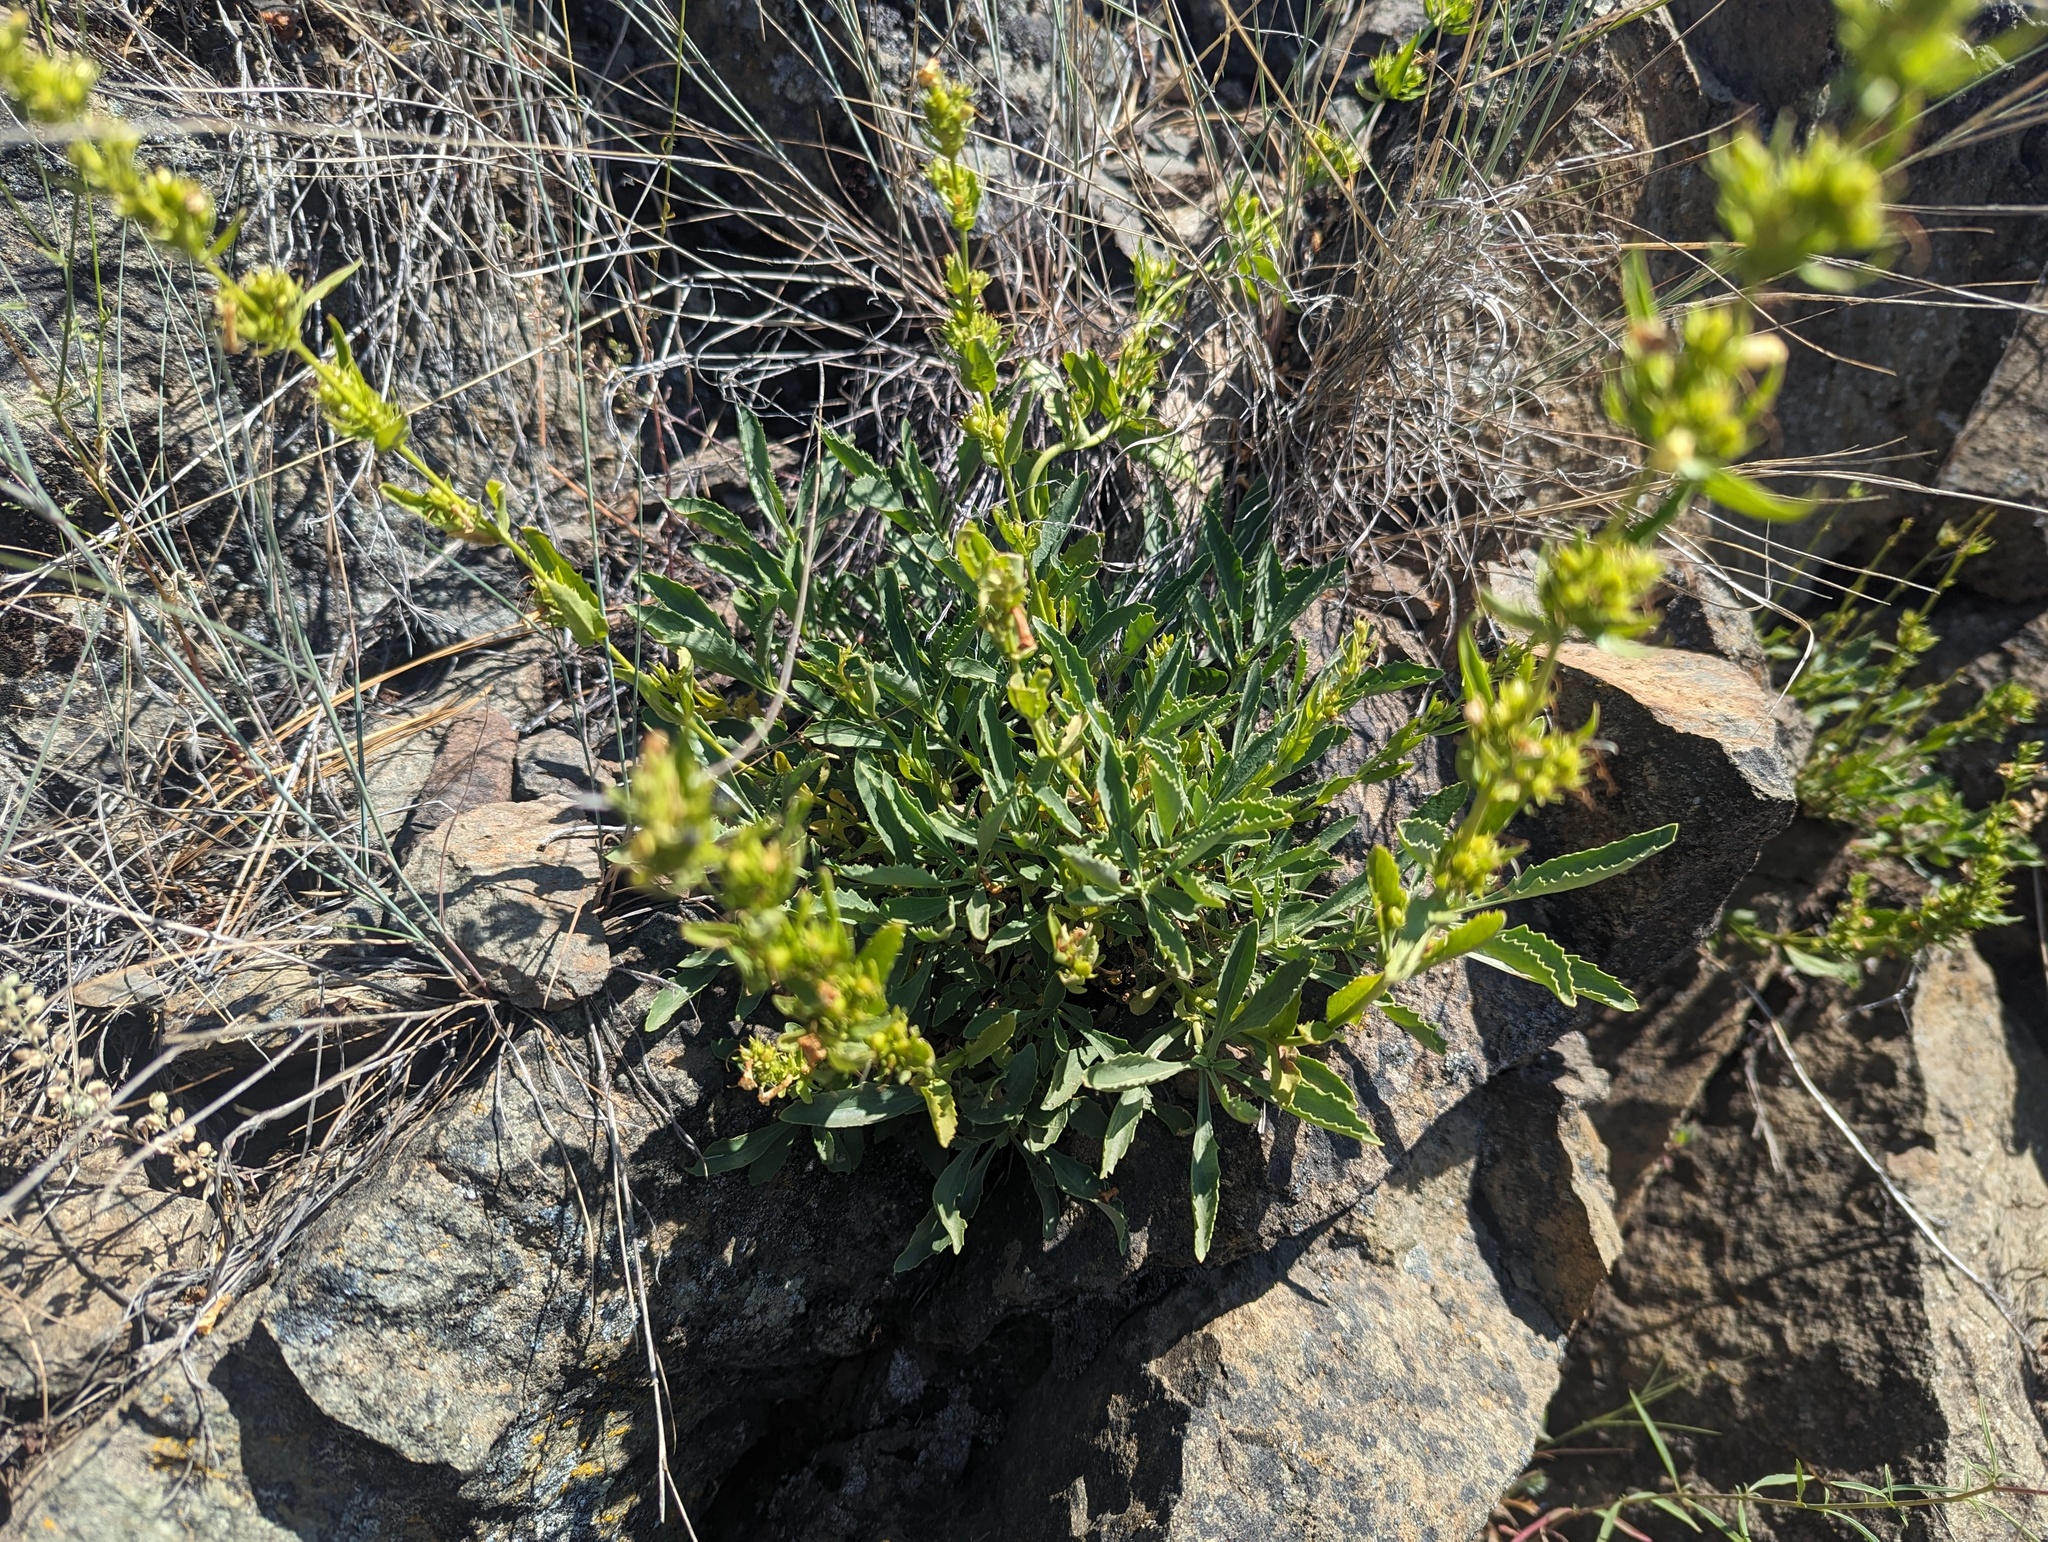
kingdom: Plantae
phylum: Tracheophyta
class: Magnoliopsida
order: Lamiales
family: Plantaginaceae
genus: Penstemon
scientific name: Penstemon deustus
